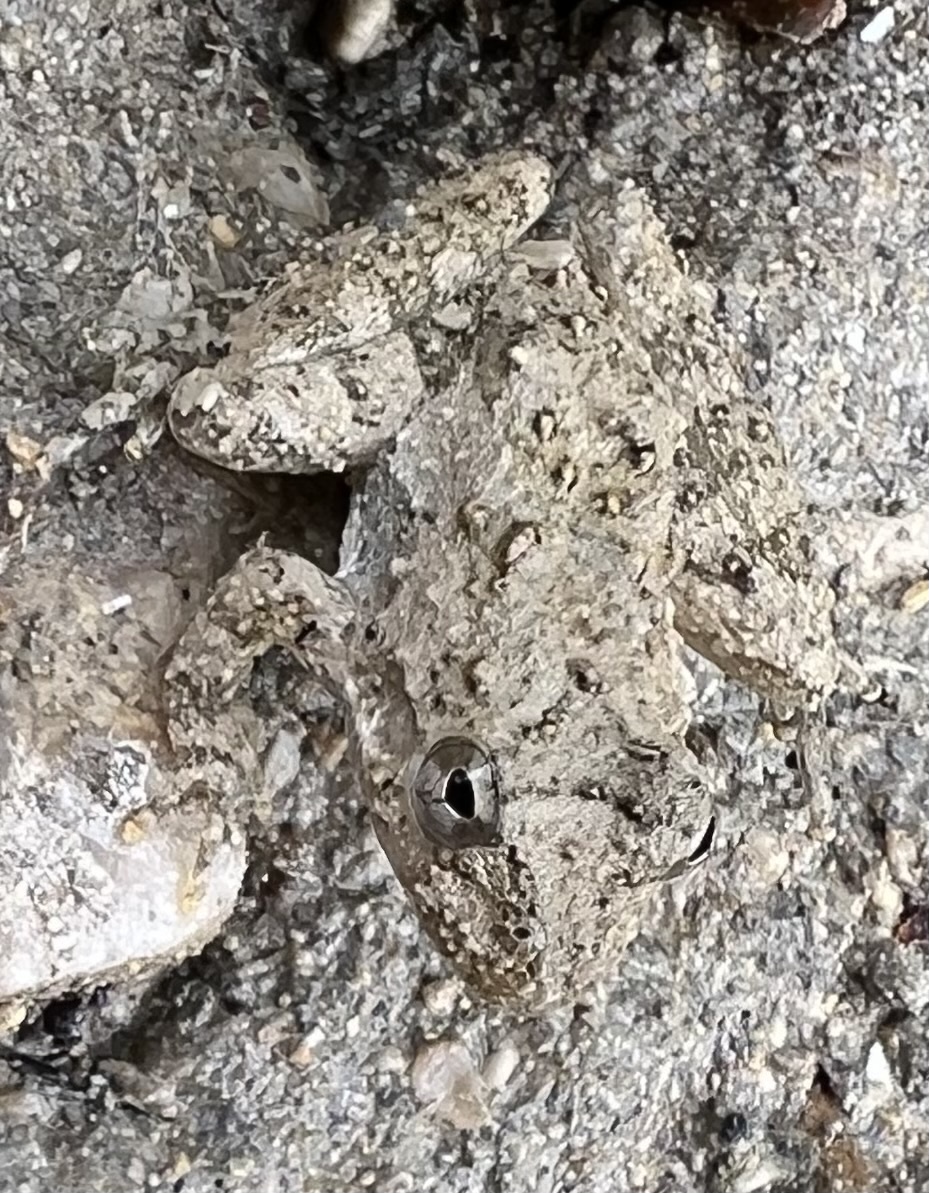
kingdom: Animalia
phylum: Chordata
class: Amphibia
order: Anura
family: Hylidae
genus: Acris
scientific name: Acris blanchardi
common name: Blanchard's cricket frog
